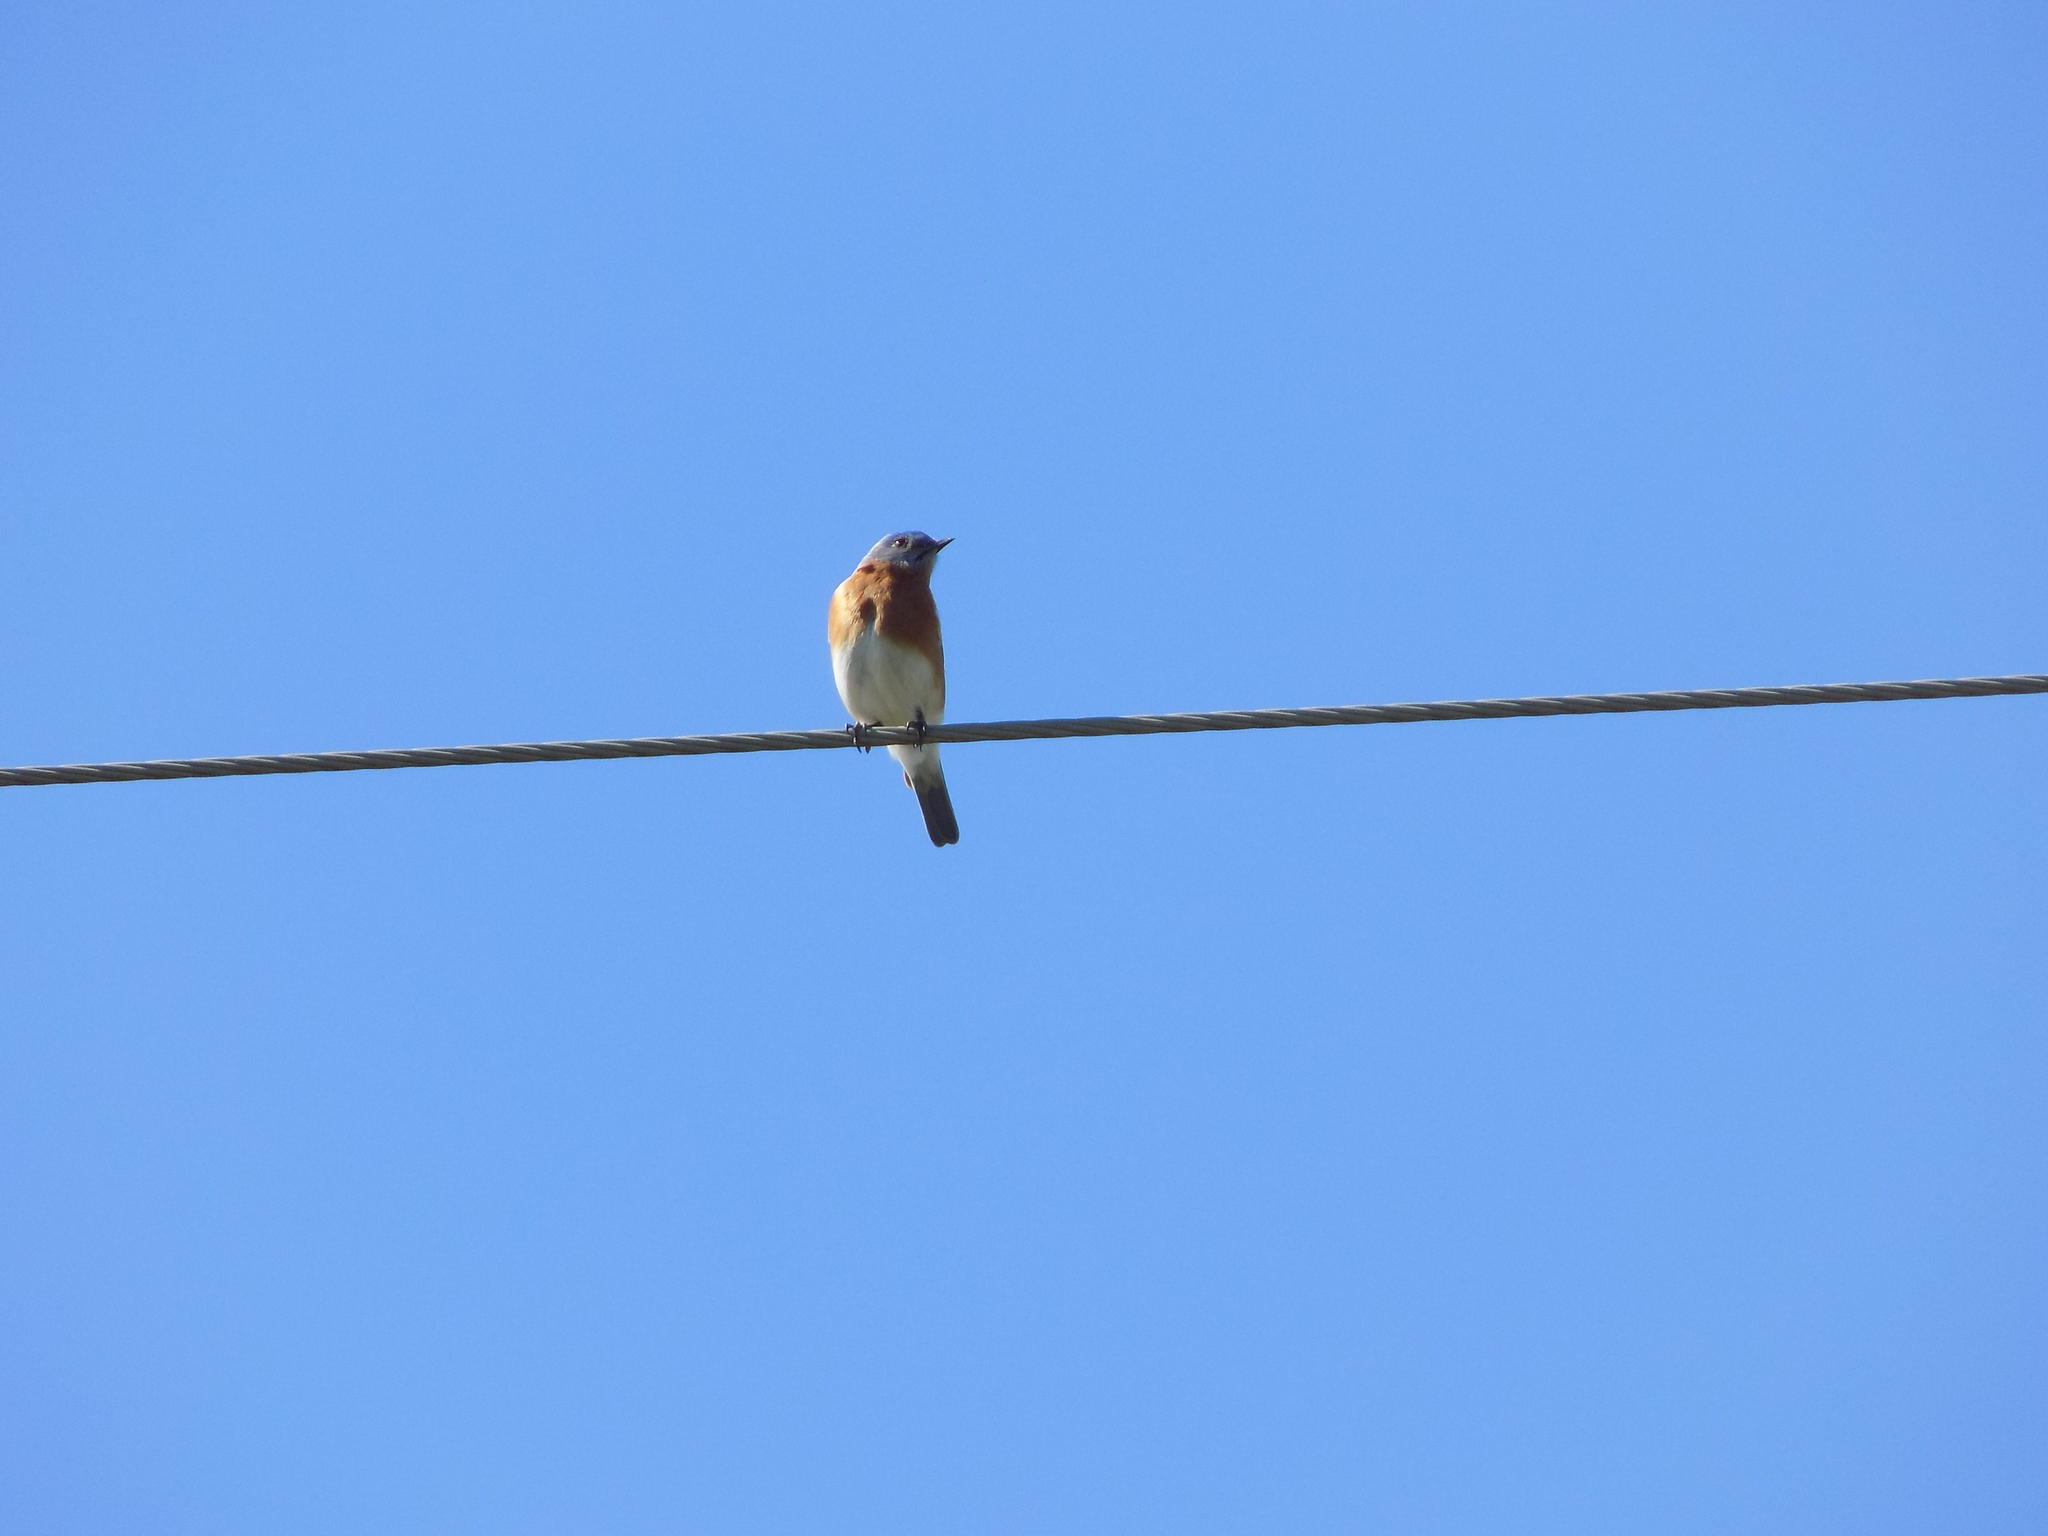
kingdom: Animalia
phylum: Chordata
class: Aves
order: Passeriformes
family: Turdidae
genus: Sialia
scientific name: Sialia sialis
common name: Eastern bluebird
